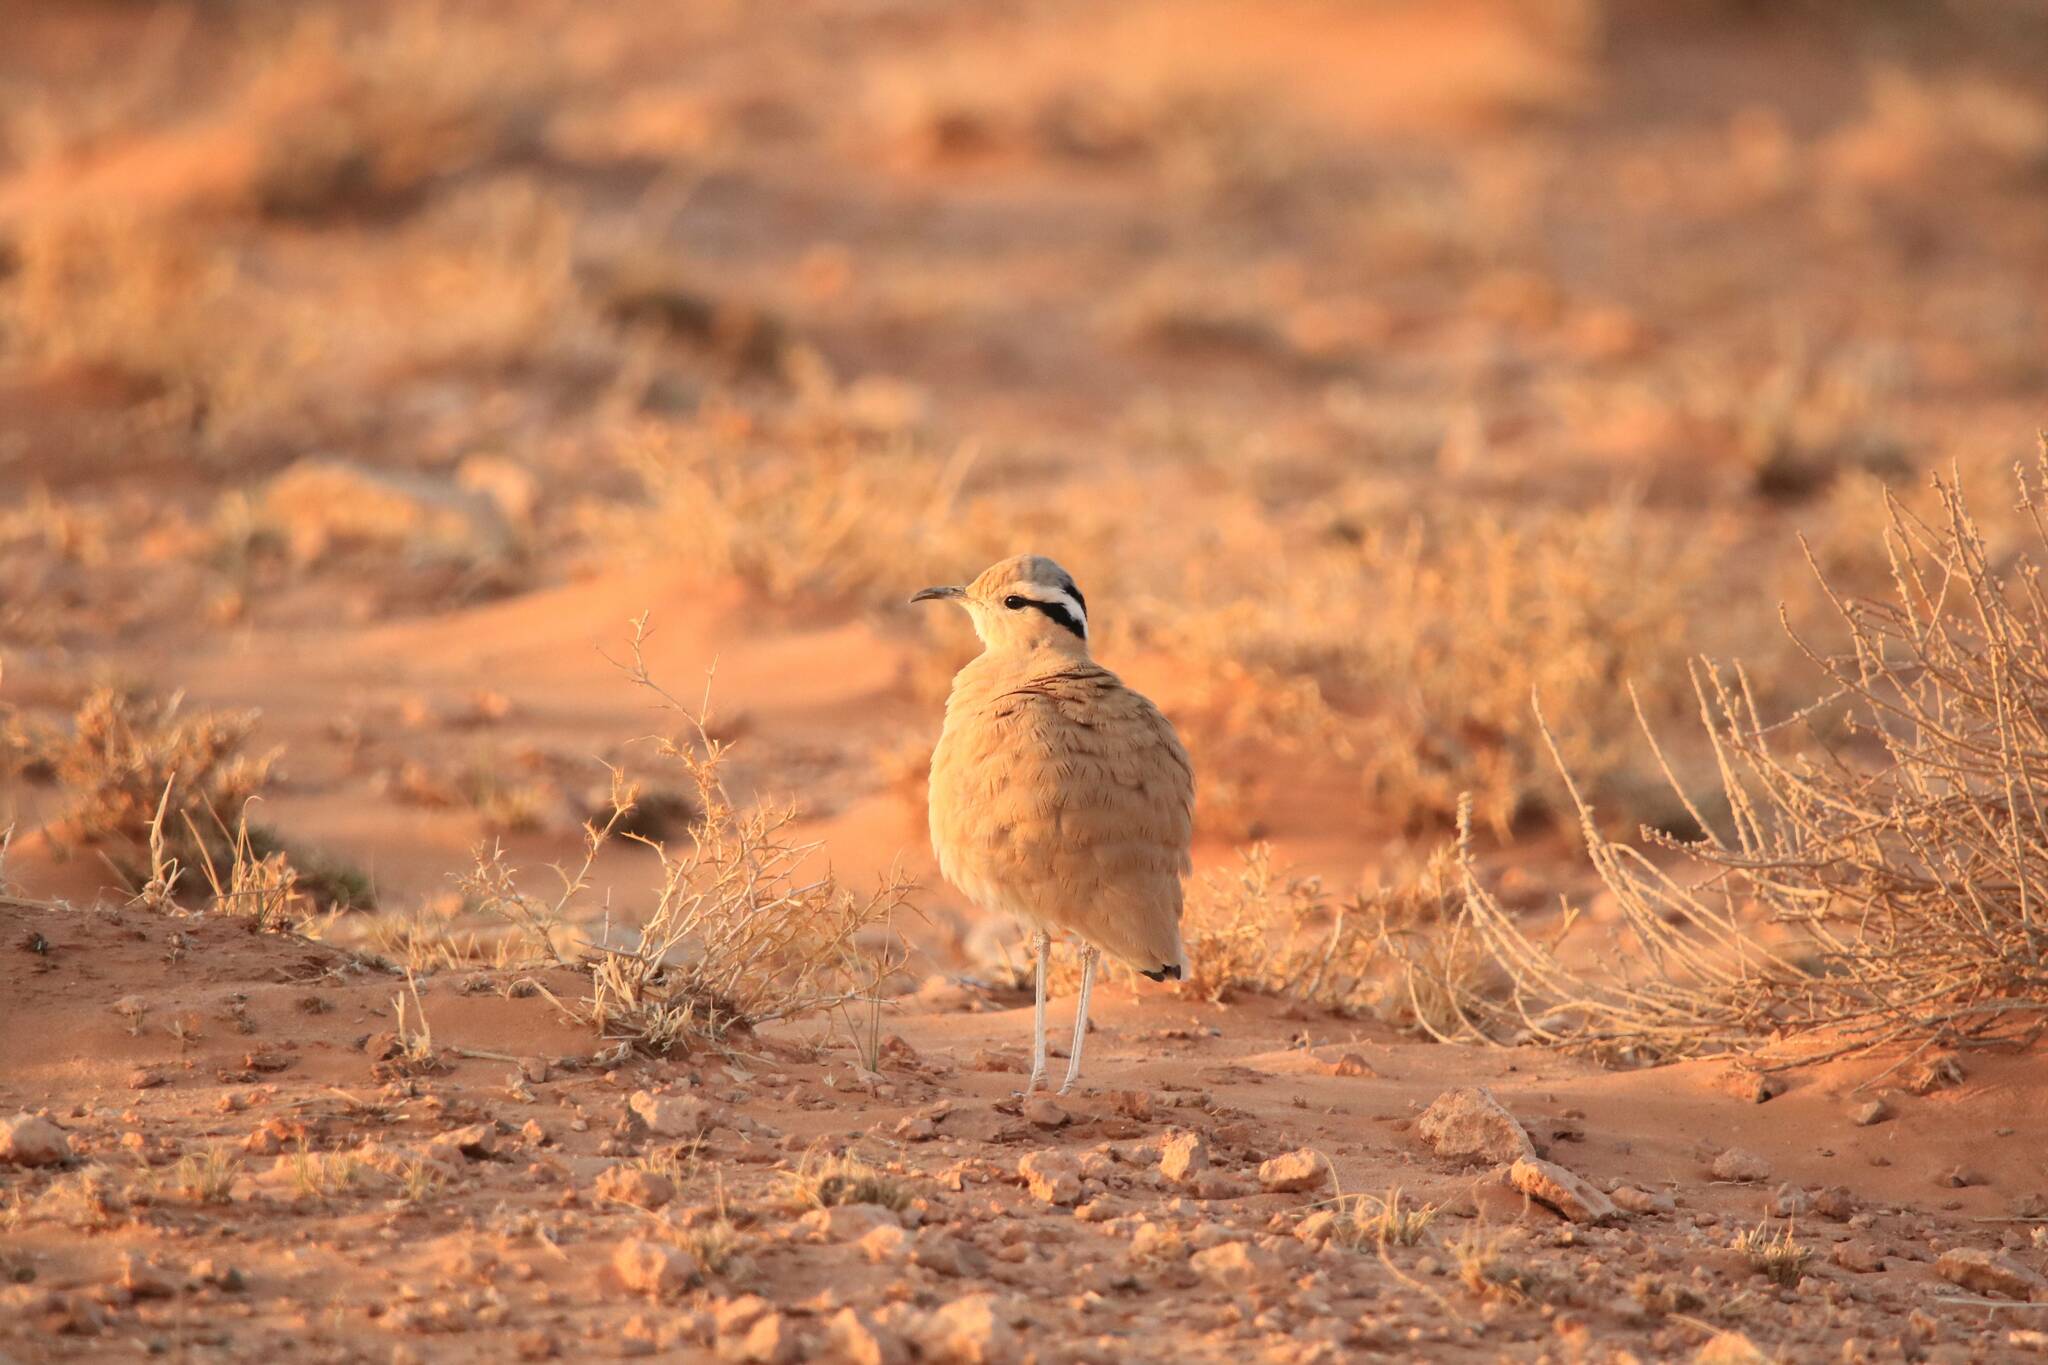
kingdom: Animalia
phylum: Chordata
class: Aves
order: Charadriiformes
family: Glareolidae
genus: Cursorius
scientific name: Cursorius cursor
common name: Cream-colored courser
